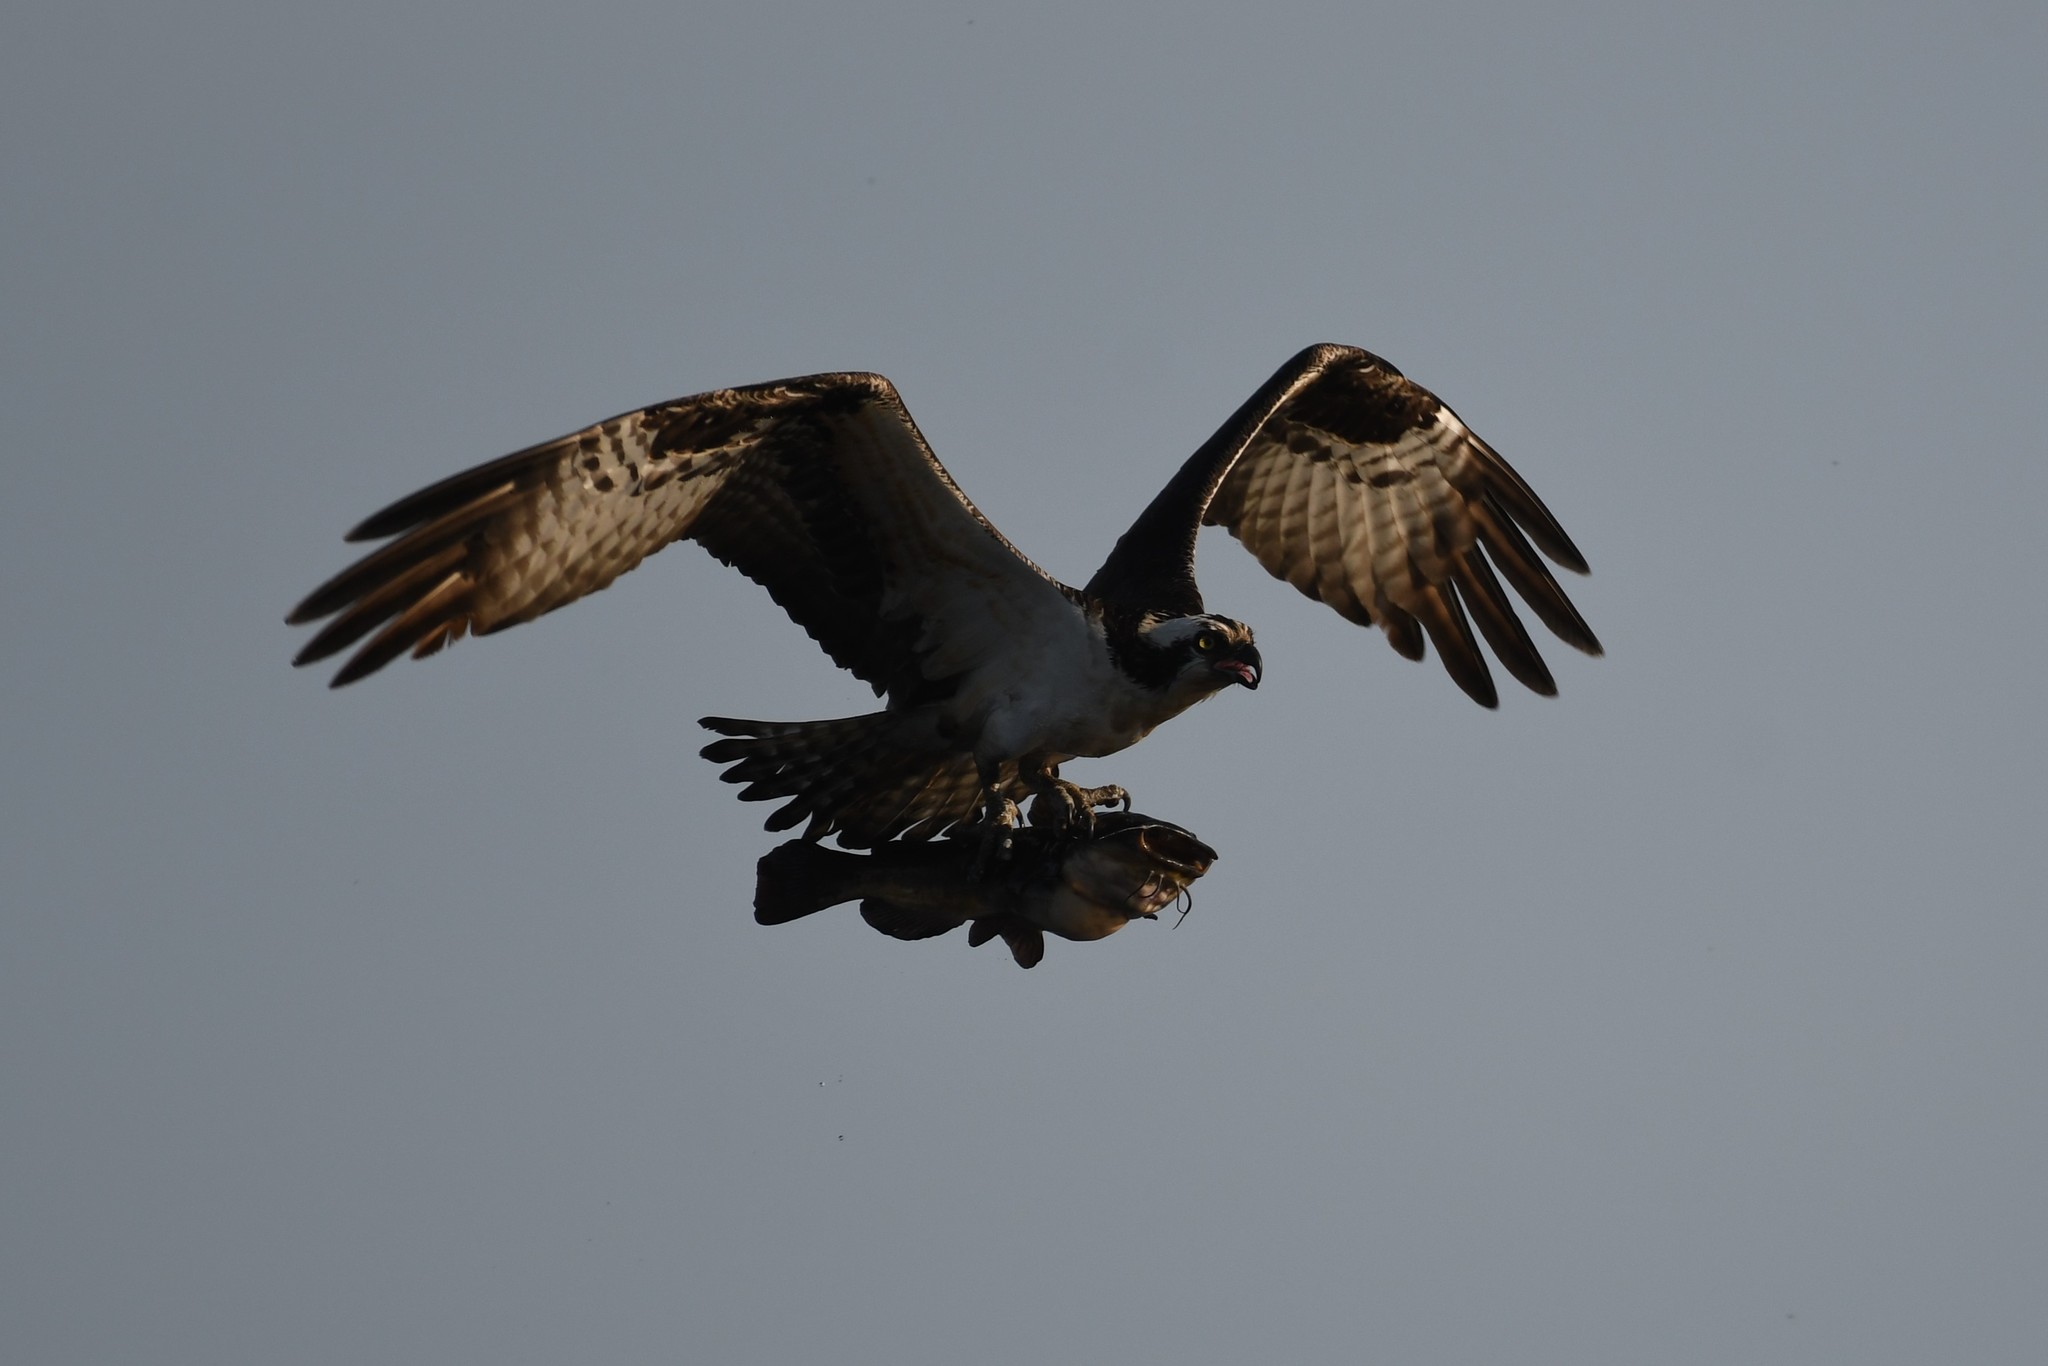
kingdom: Animalia
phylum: Chordata
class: Aves
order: Accipitriformes
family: Pandionidae
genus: Pandion
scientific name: Pandion haliaetus
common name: Osprey
